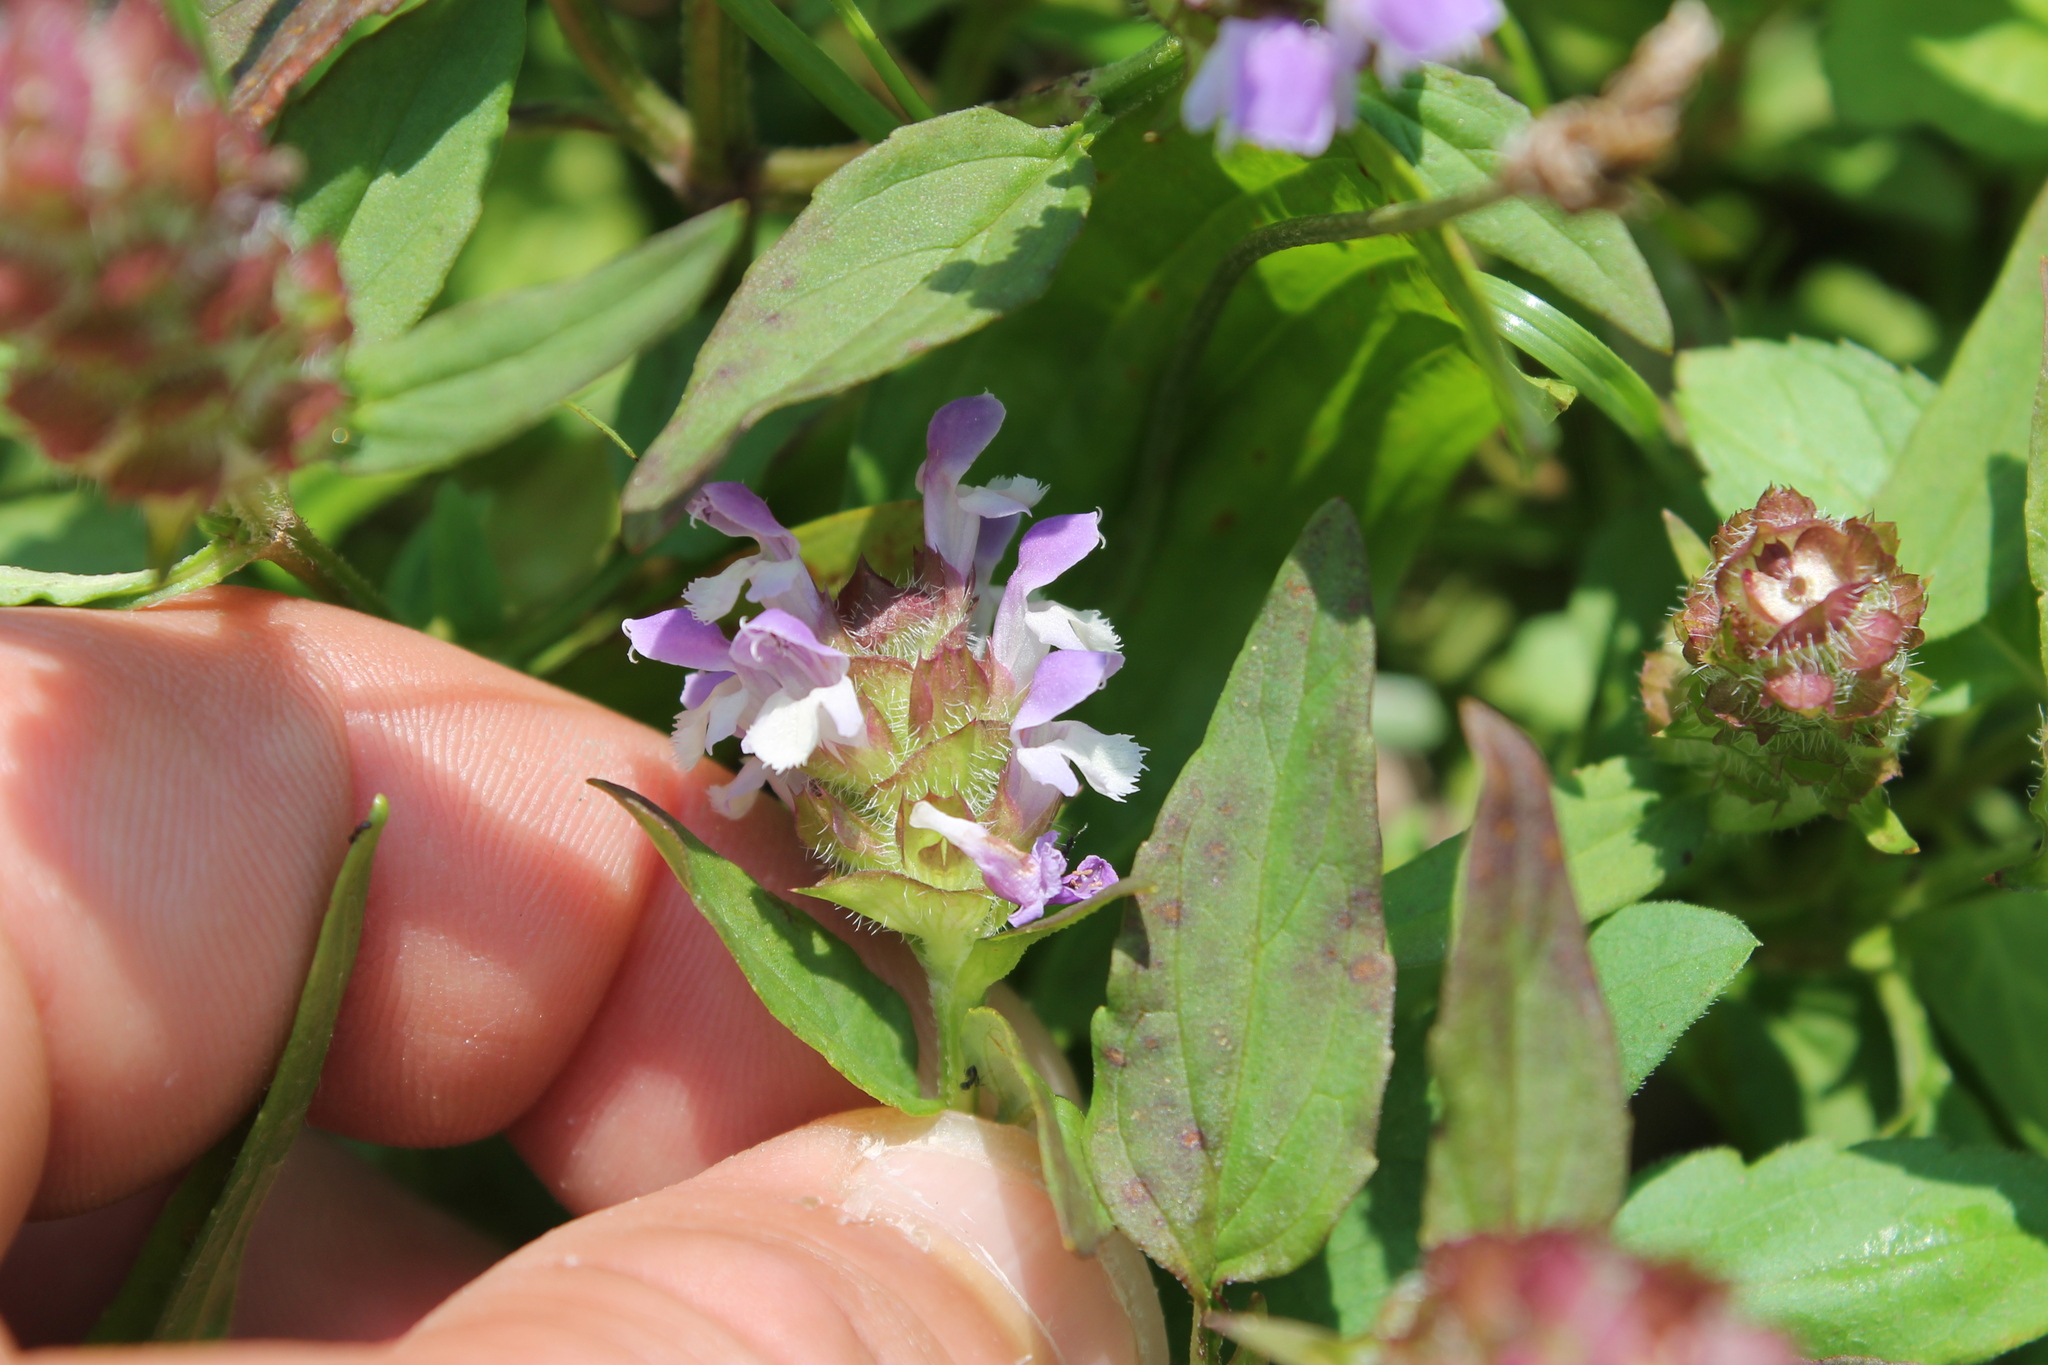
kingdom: Plantae
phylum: Tracheophyta
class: Magnoliopsida
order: Lamiales
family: Lamiaceae
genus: Prunella
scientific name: Prunella vulgaris
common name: Heal-all
